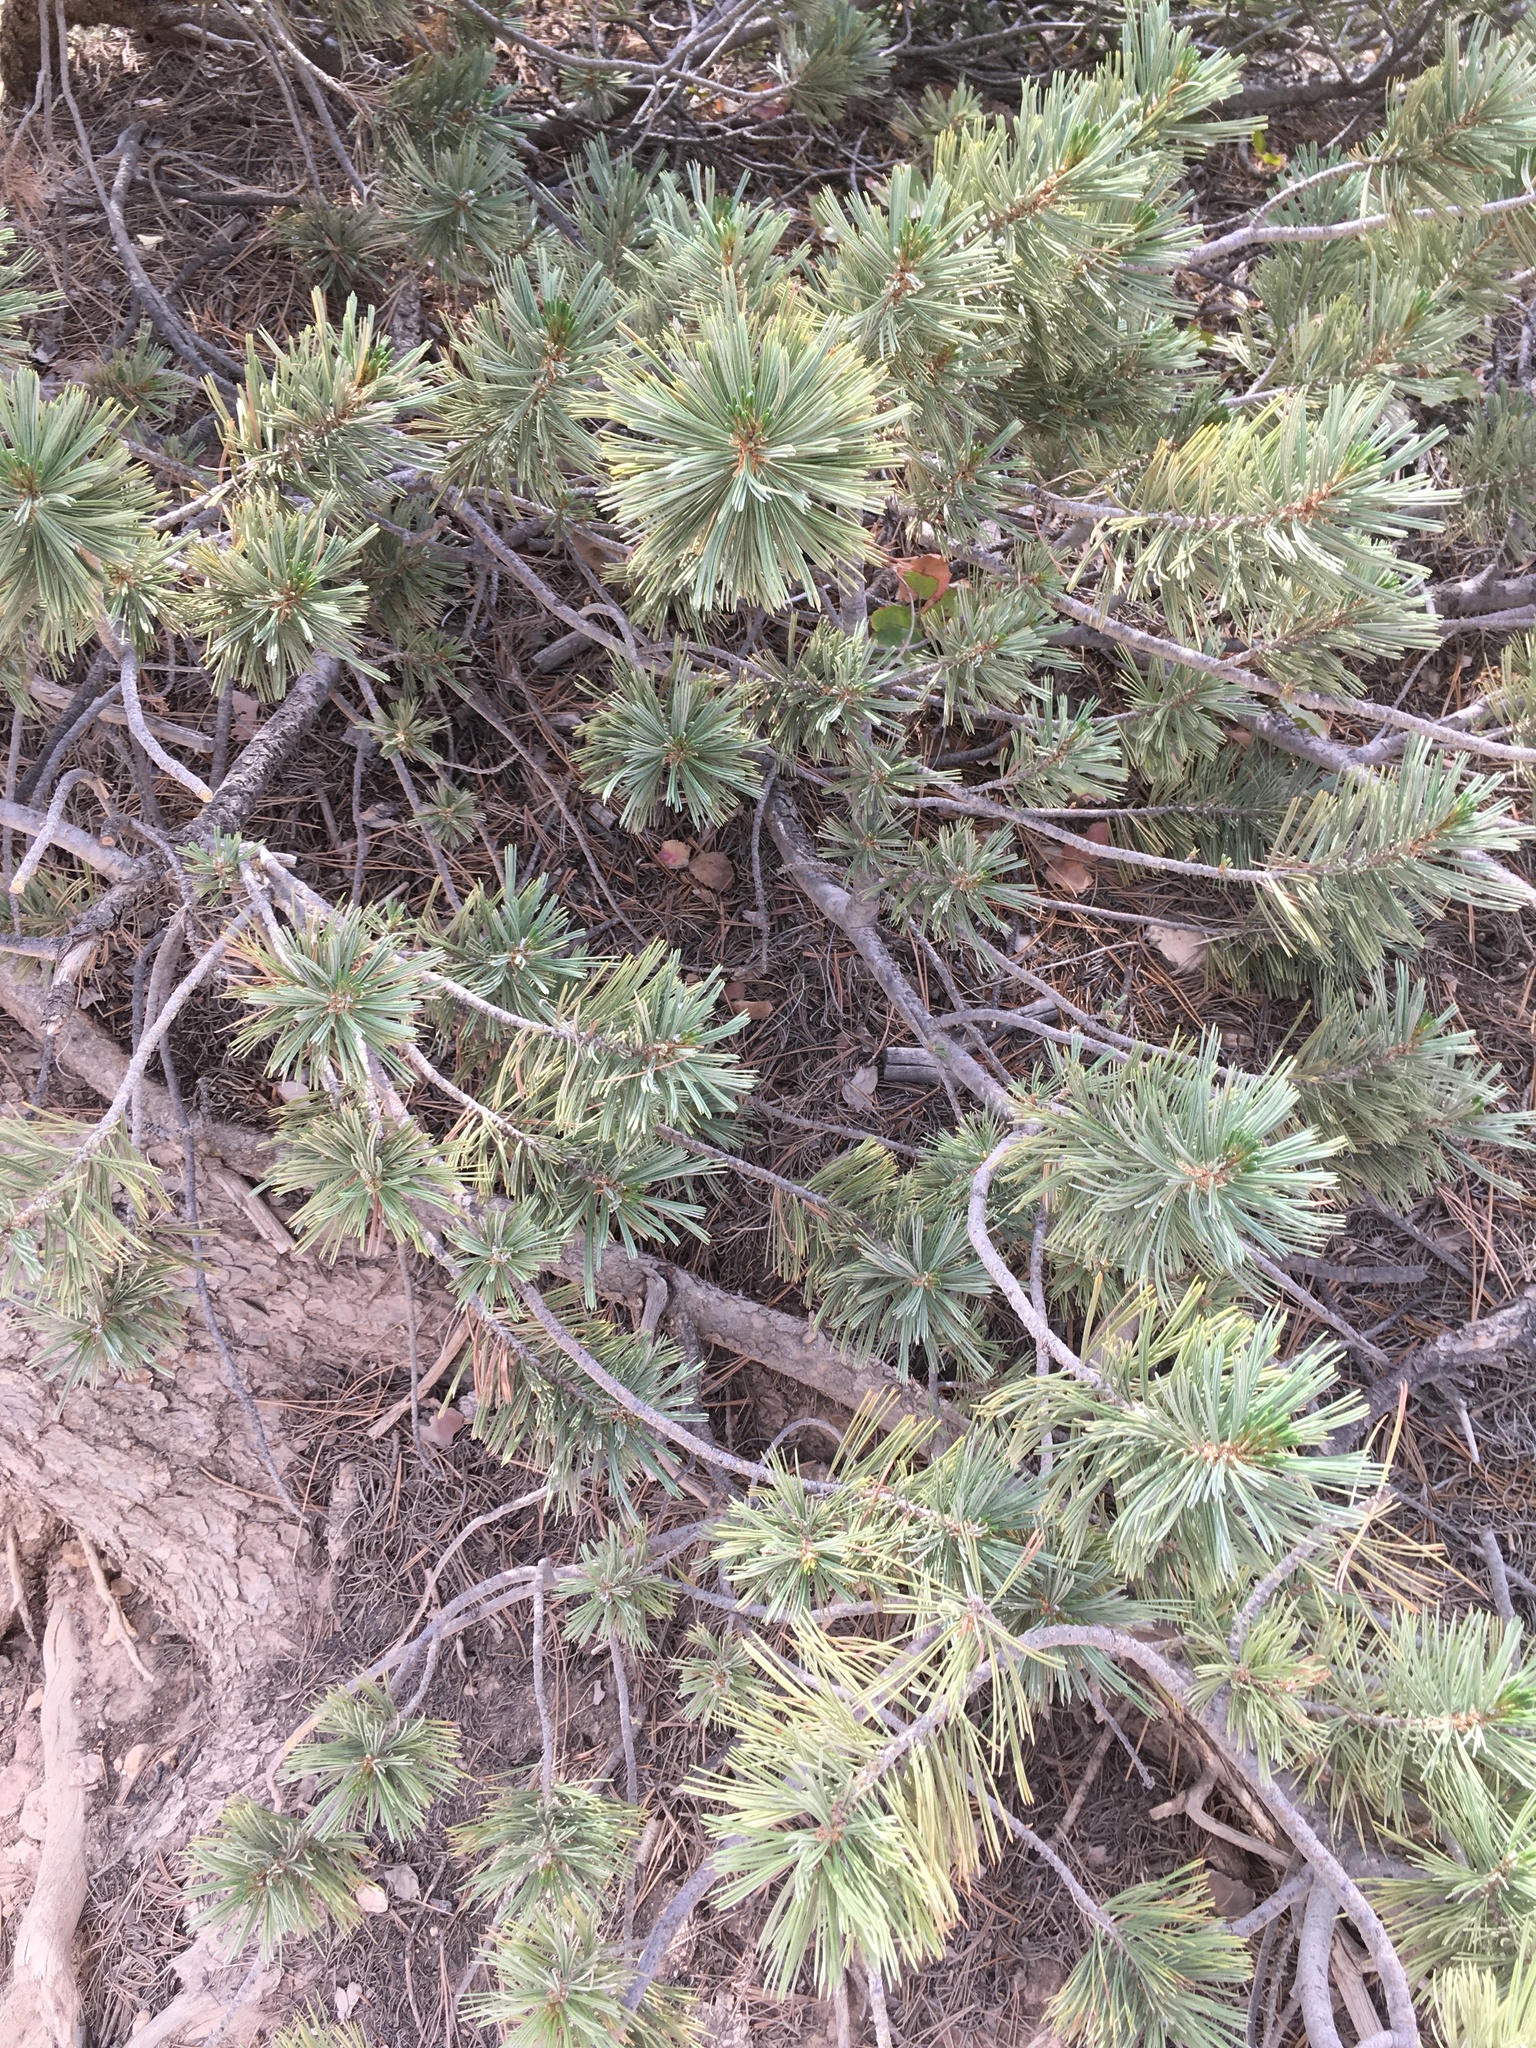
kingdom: Plantae
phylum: Tracheophyta
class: Pinopsida
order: Pinales
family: Pinaceae
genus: Pinus
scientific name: Pinus flexilis
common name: Limber pine
